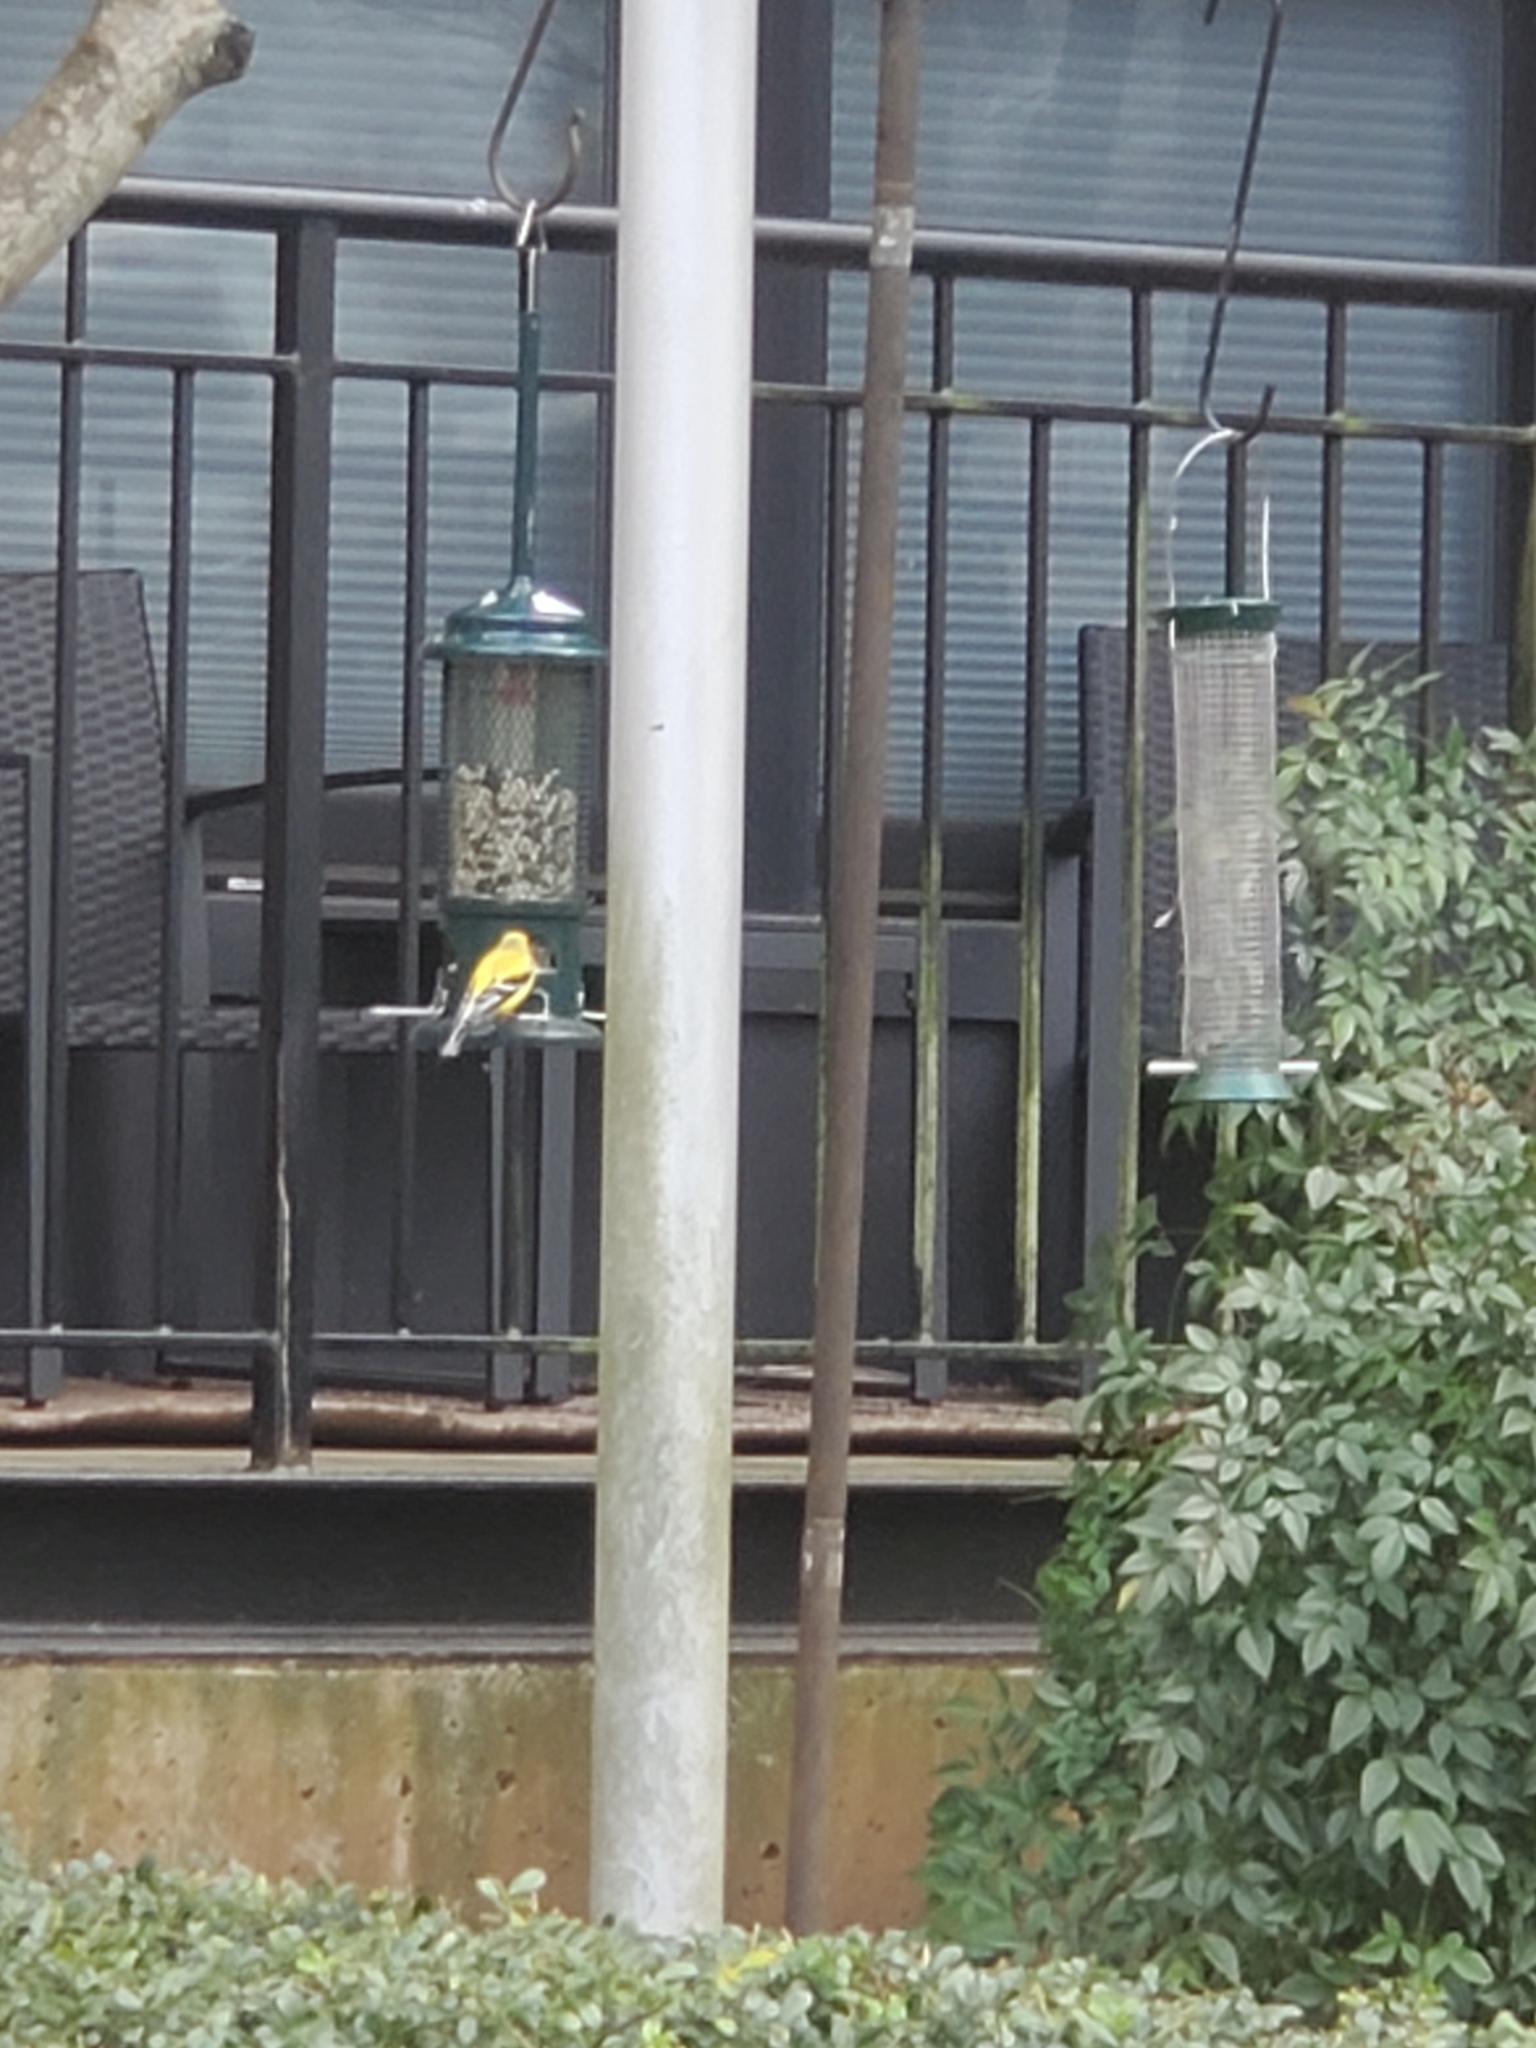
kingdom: Animalia
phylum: Chordata
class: Aves
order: Passeriformes
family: Fringillidae
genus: Spinus
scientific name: Spinus tristis
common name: American goldfinch
